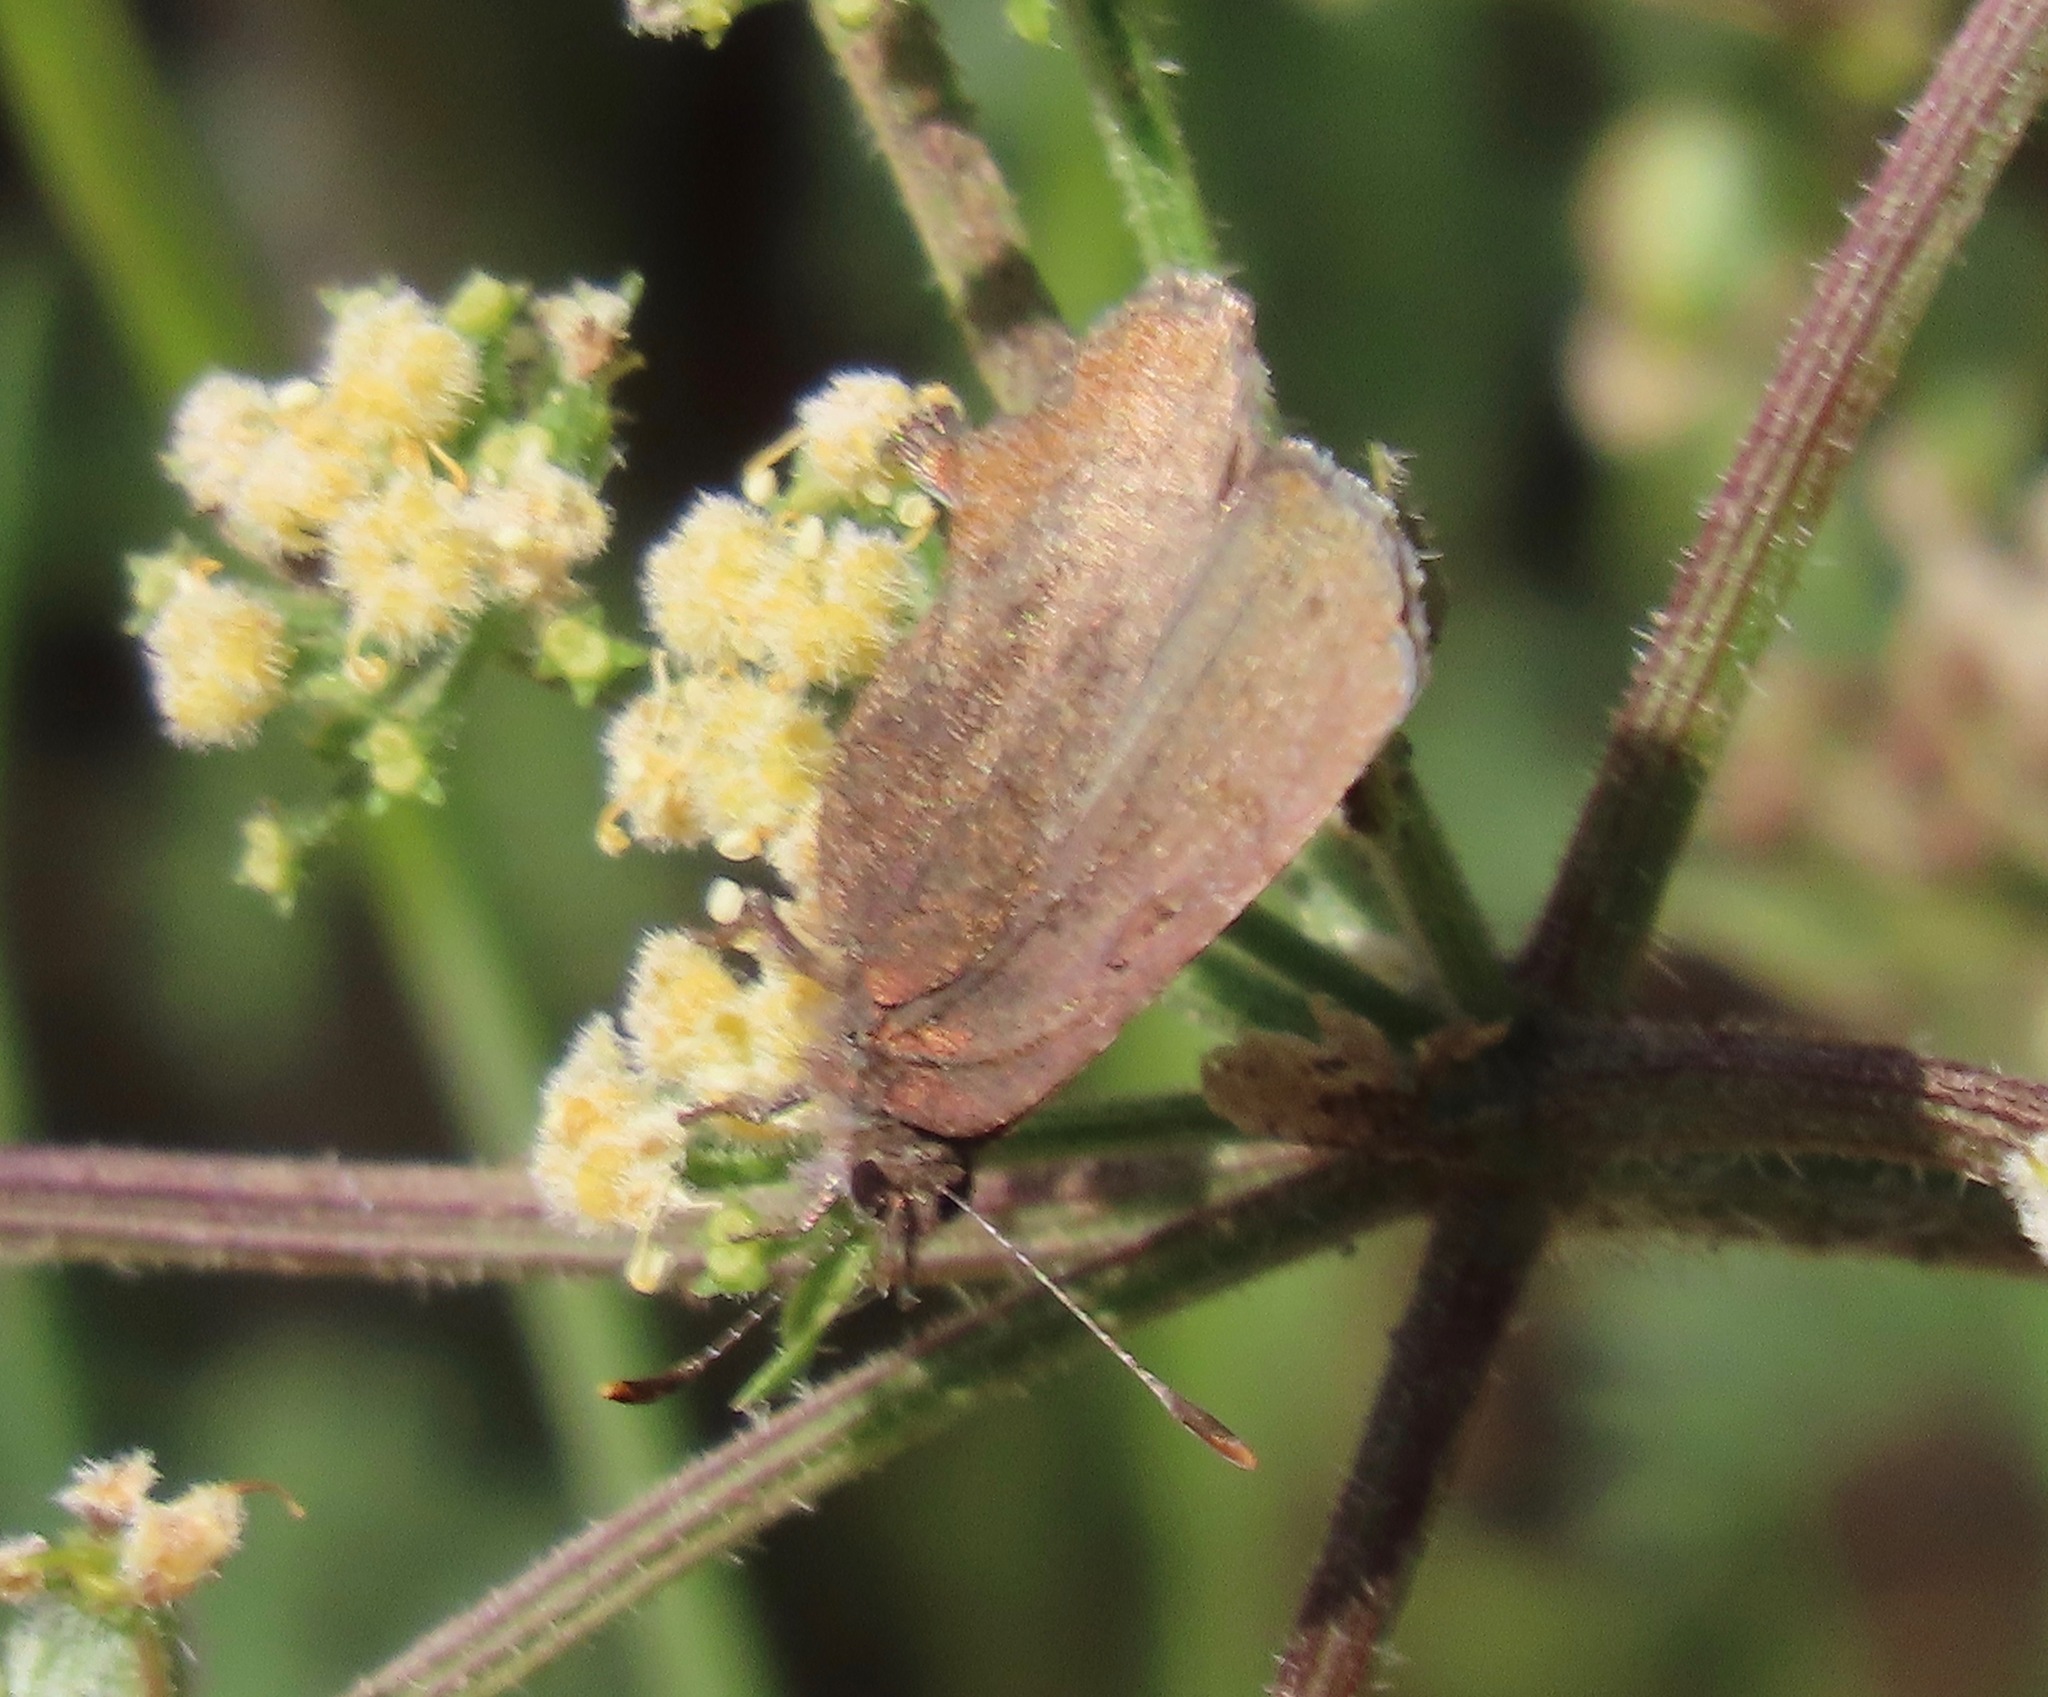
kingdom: Animalia
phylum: Arthropoda
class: Insecta
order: Lepidoptera
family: Lycaenidae
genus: Incisalia
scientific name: Incisalia irioides
